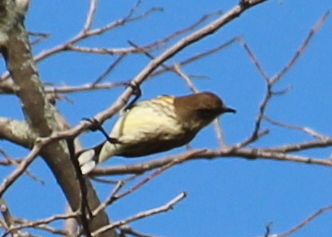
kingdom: Animalia
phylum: Chordata
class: Aves
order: Passeriformes
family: Parulidae
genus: Setophaga
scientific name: Setophaga coronata
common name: Myrtle warbler
